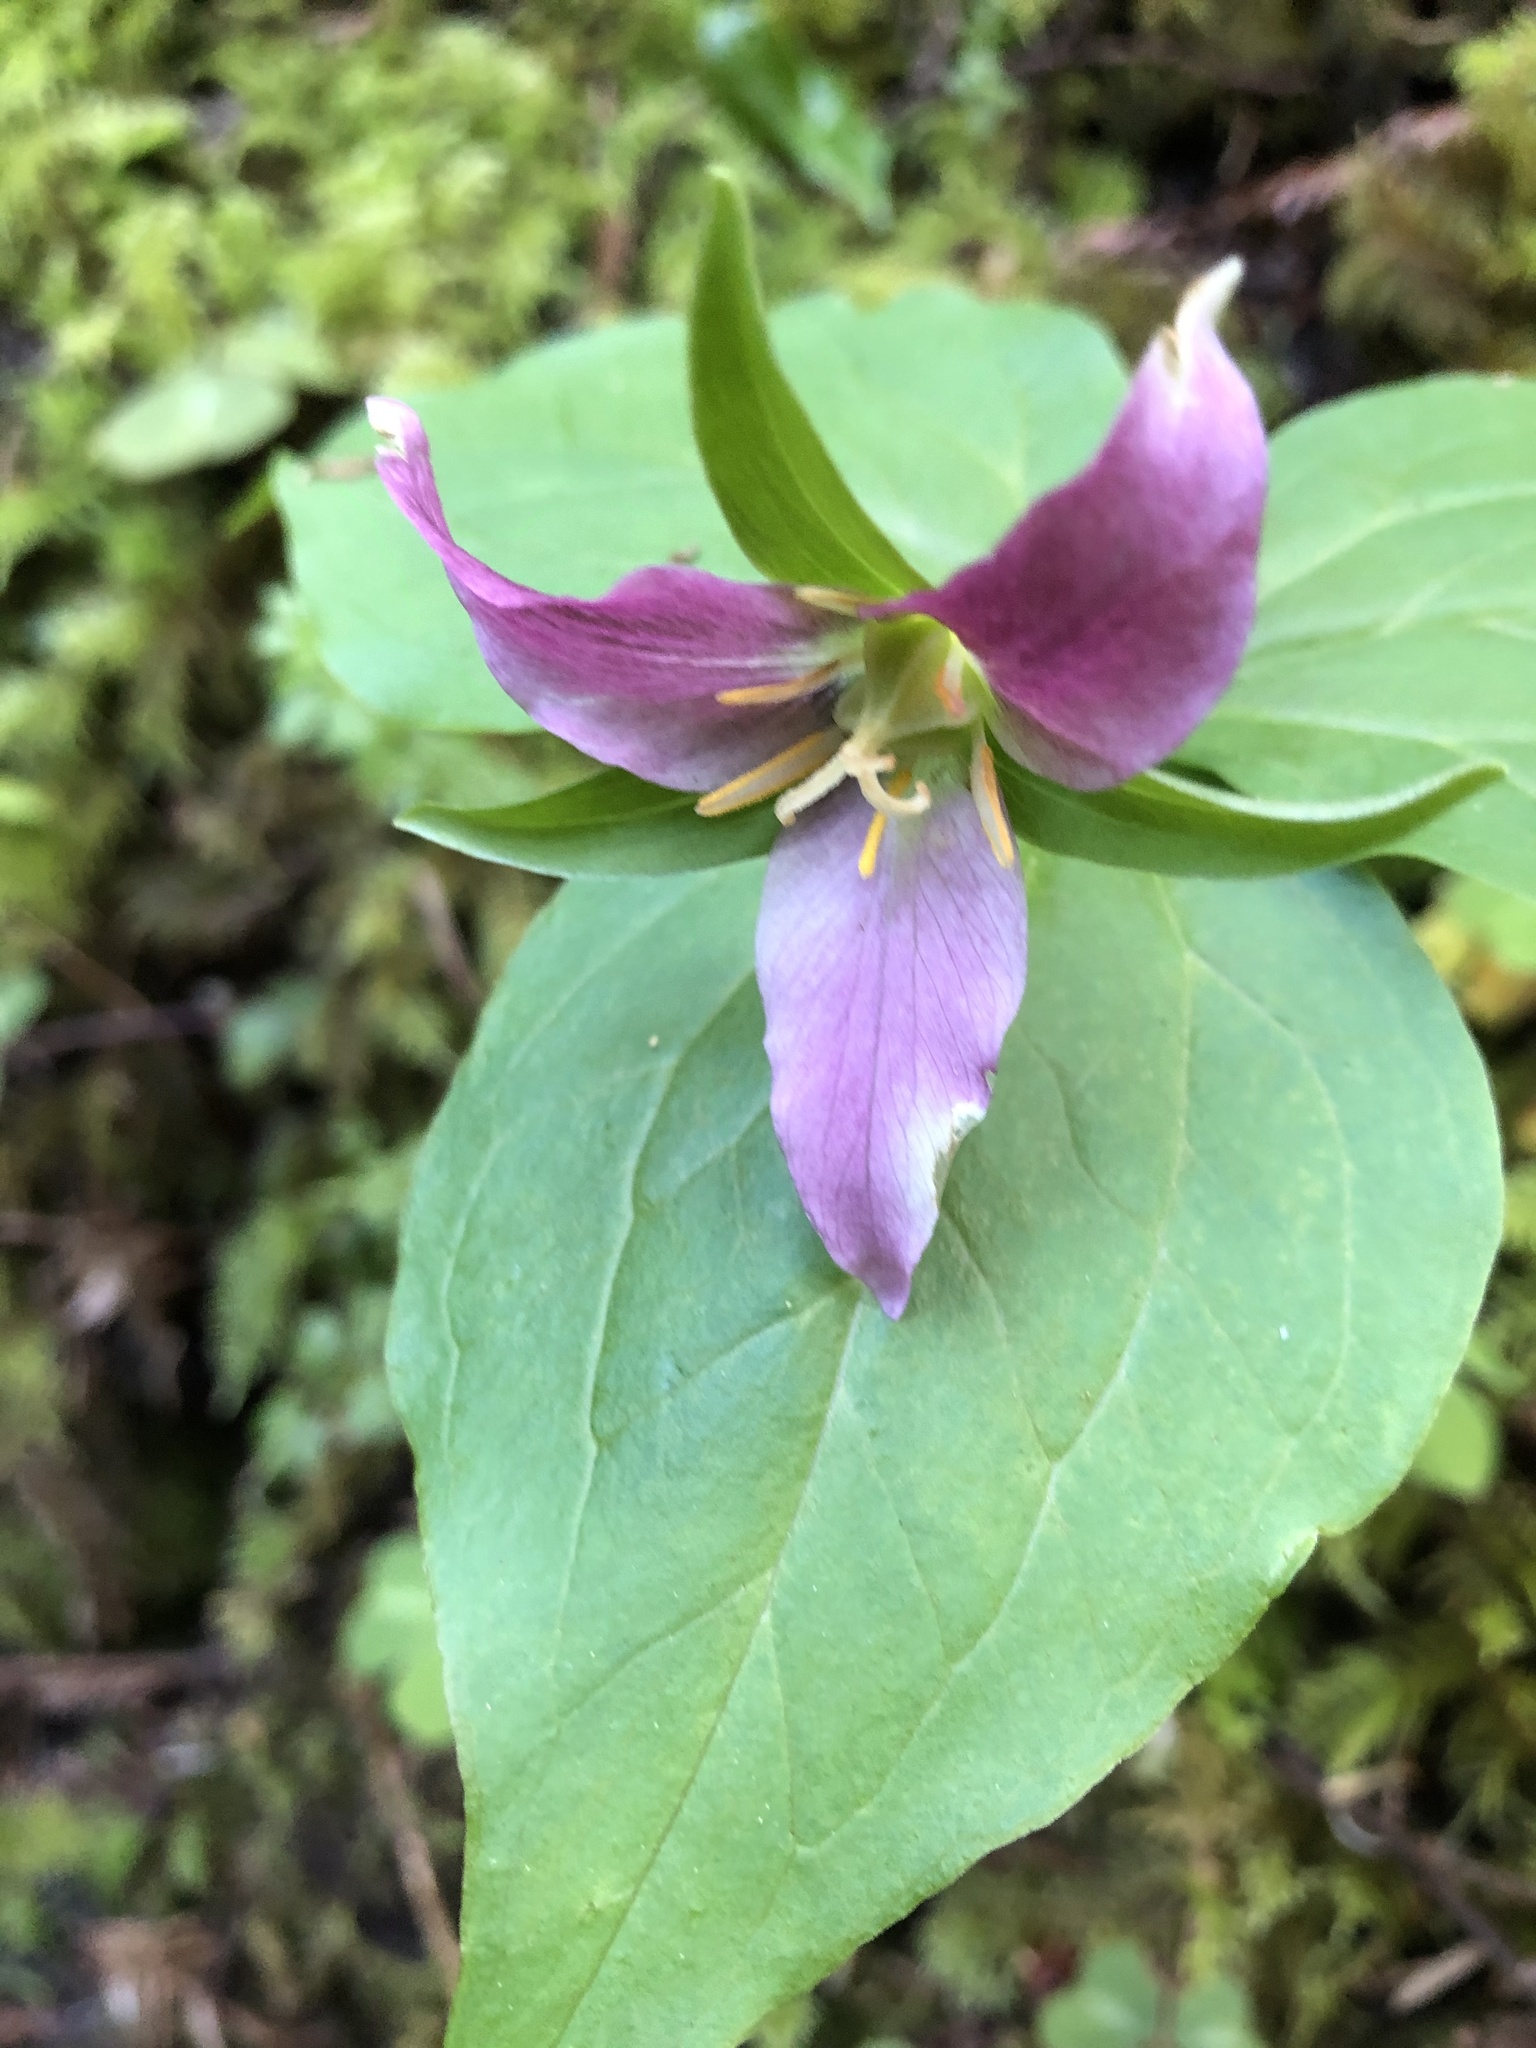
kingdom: Plantae
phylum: Tracheophyta
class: Liliopsida
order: Liliales
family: Melanthiaceae
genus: Trillium
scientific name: Trillium ovatum
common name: Pacific trillium
